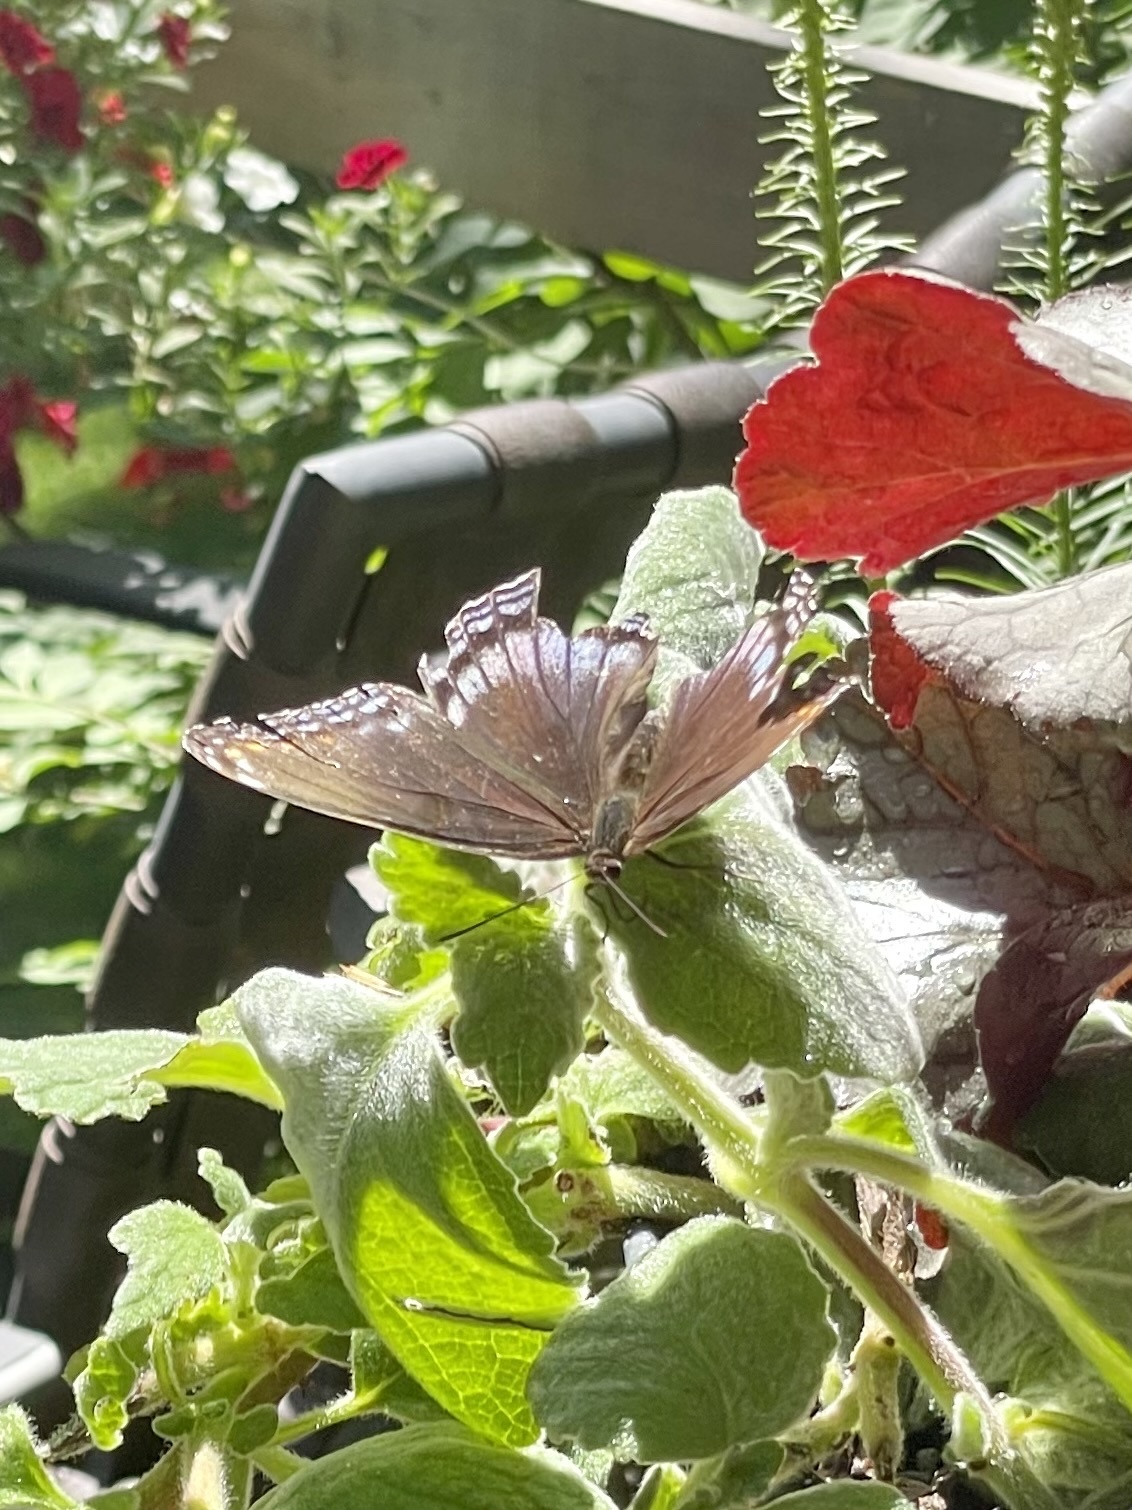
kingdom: Animalia
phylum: Arthropoda
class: Insecta
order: Lepidoptera
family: Nymphalidae
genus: Limenitis
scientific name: Limenitis arthemis
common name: Red-spotted admiral
